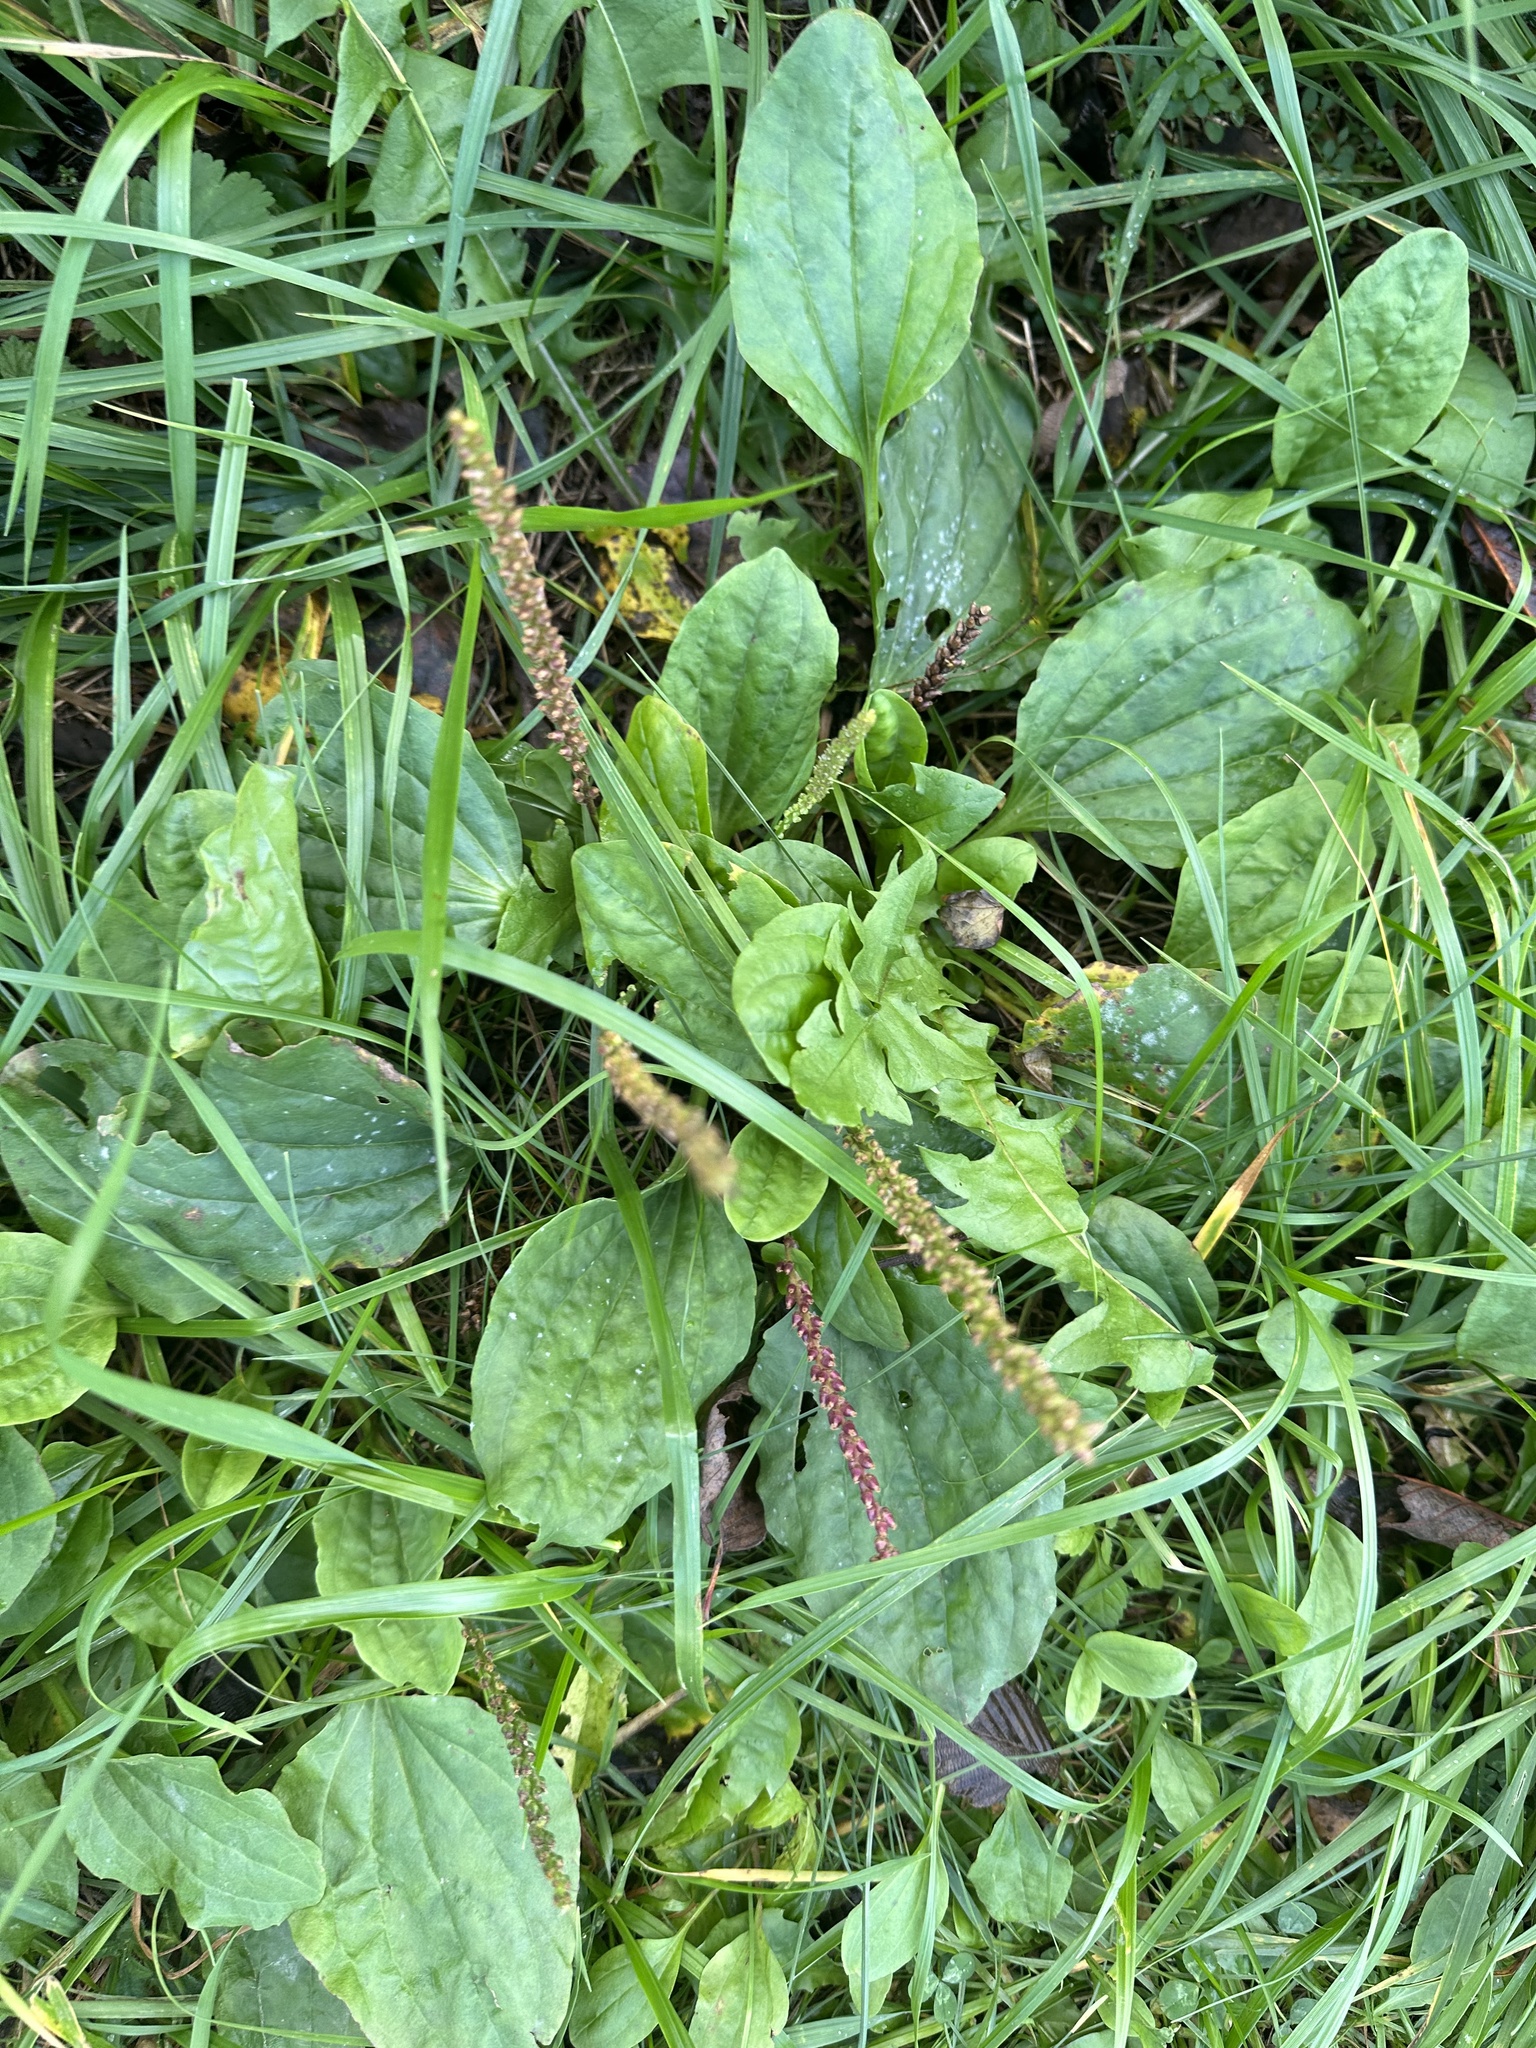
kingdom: Plantae
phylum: Tracheophyta
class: Magnoliopsida
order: Lamiales
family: Plantaginaceae
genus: Plantago
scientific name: Plantago major
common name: Common plantain
